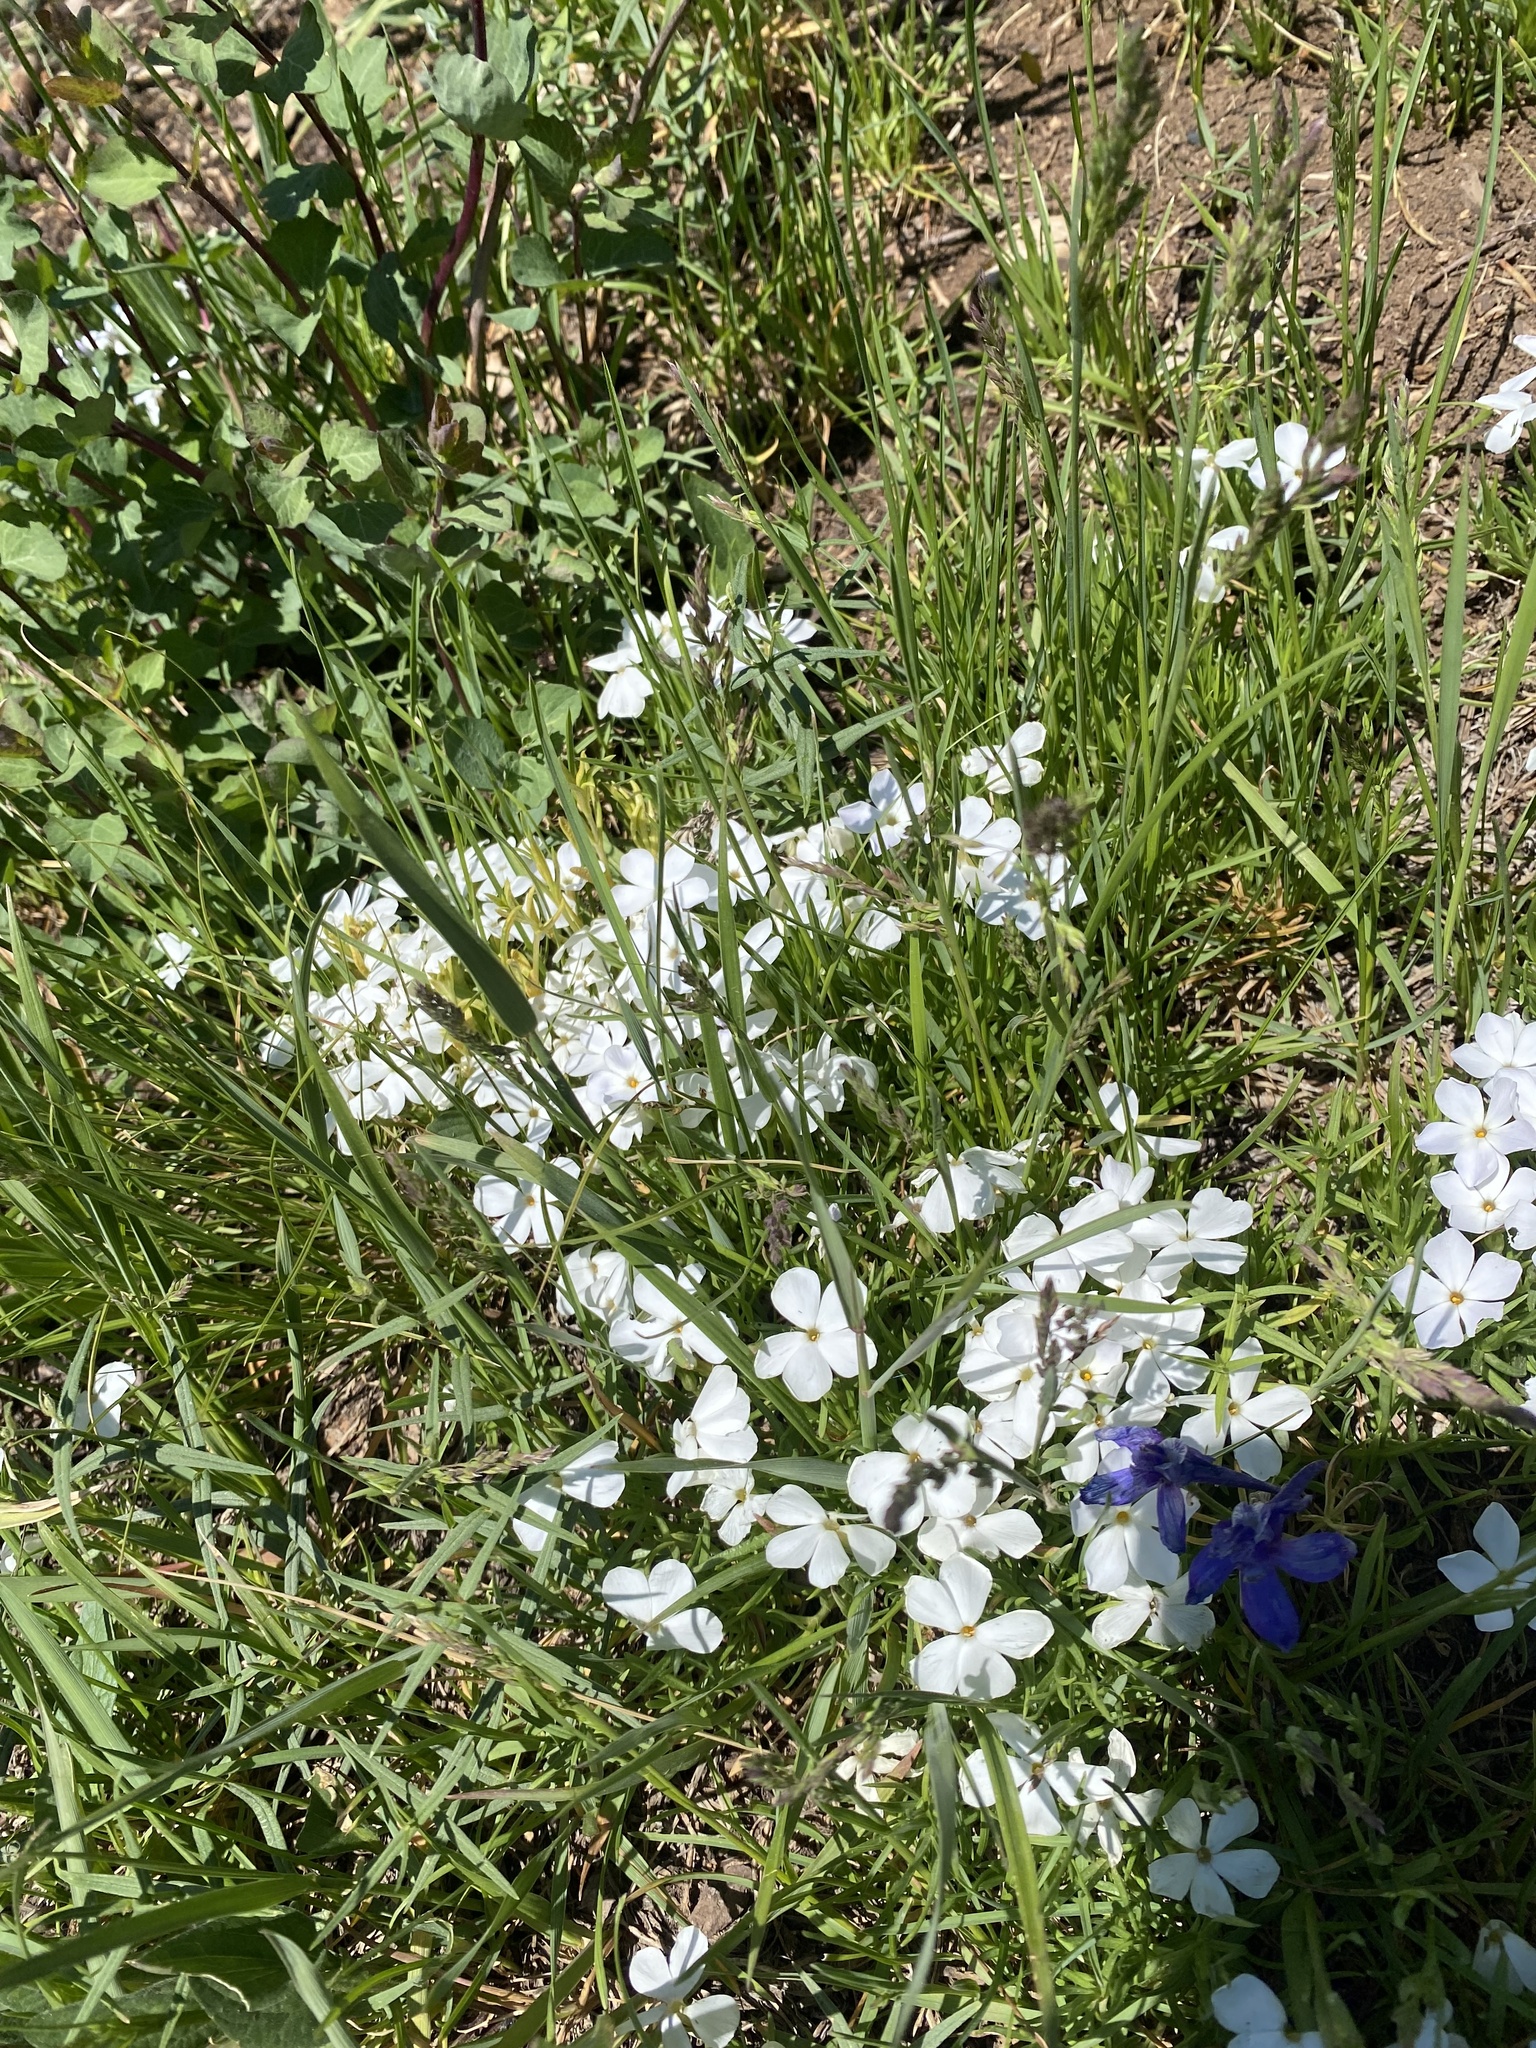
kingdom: Plantae
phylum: Tracheophyta
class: Magnoliopsida
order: Ericales
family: Polemoniaceae
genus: Phlox
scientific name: Phlox multiflora
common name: Rocky mountain phlox
